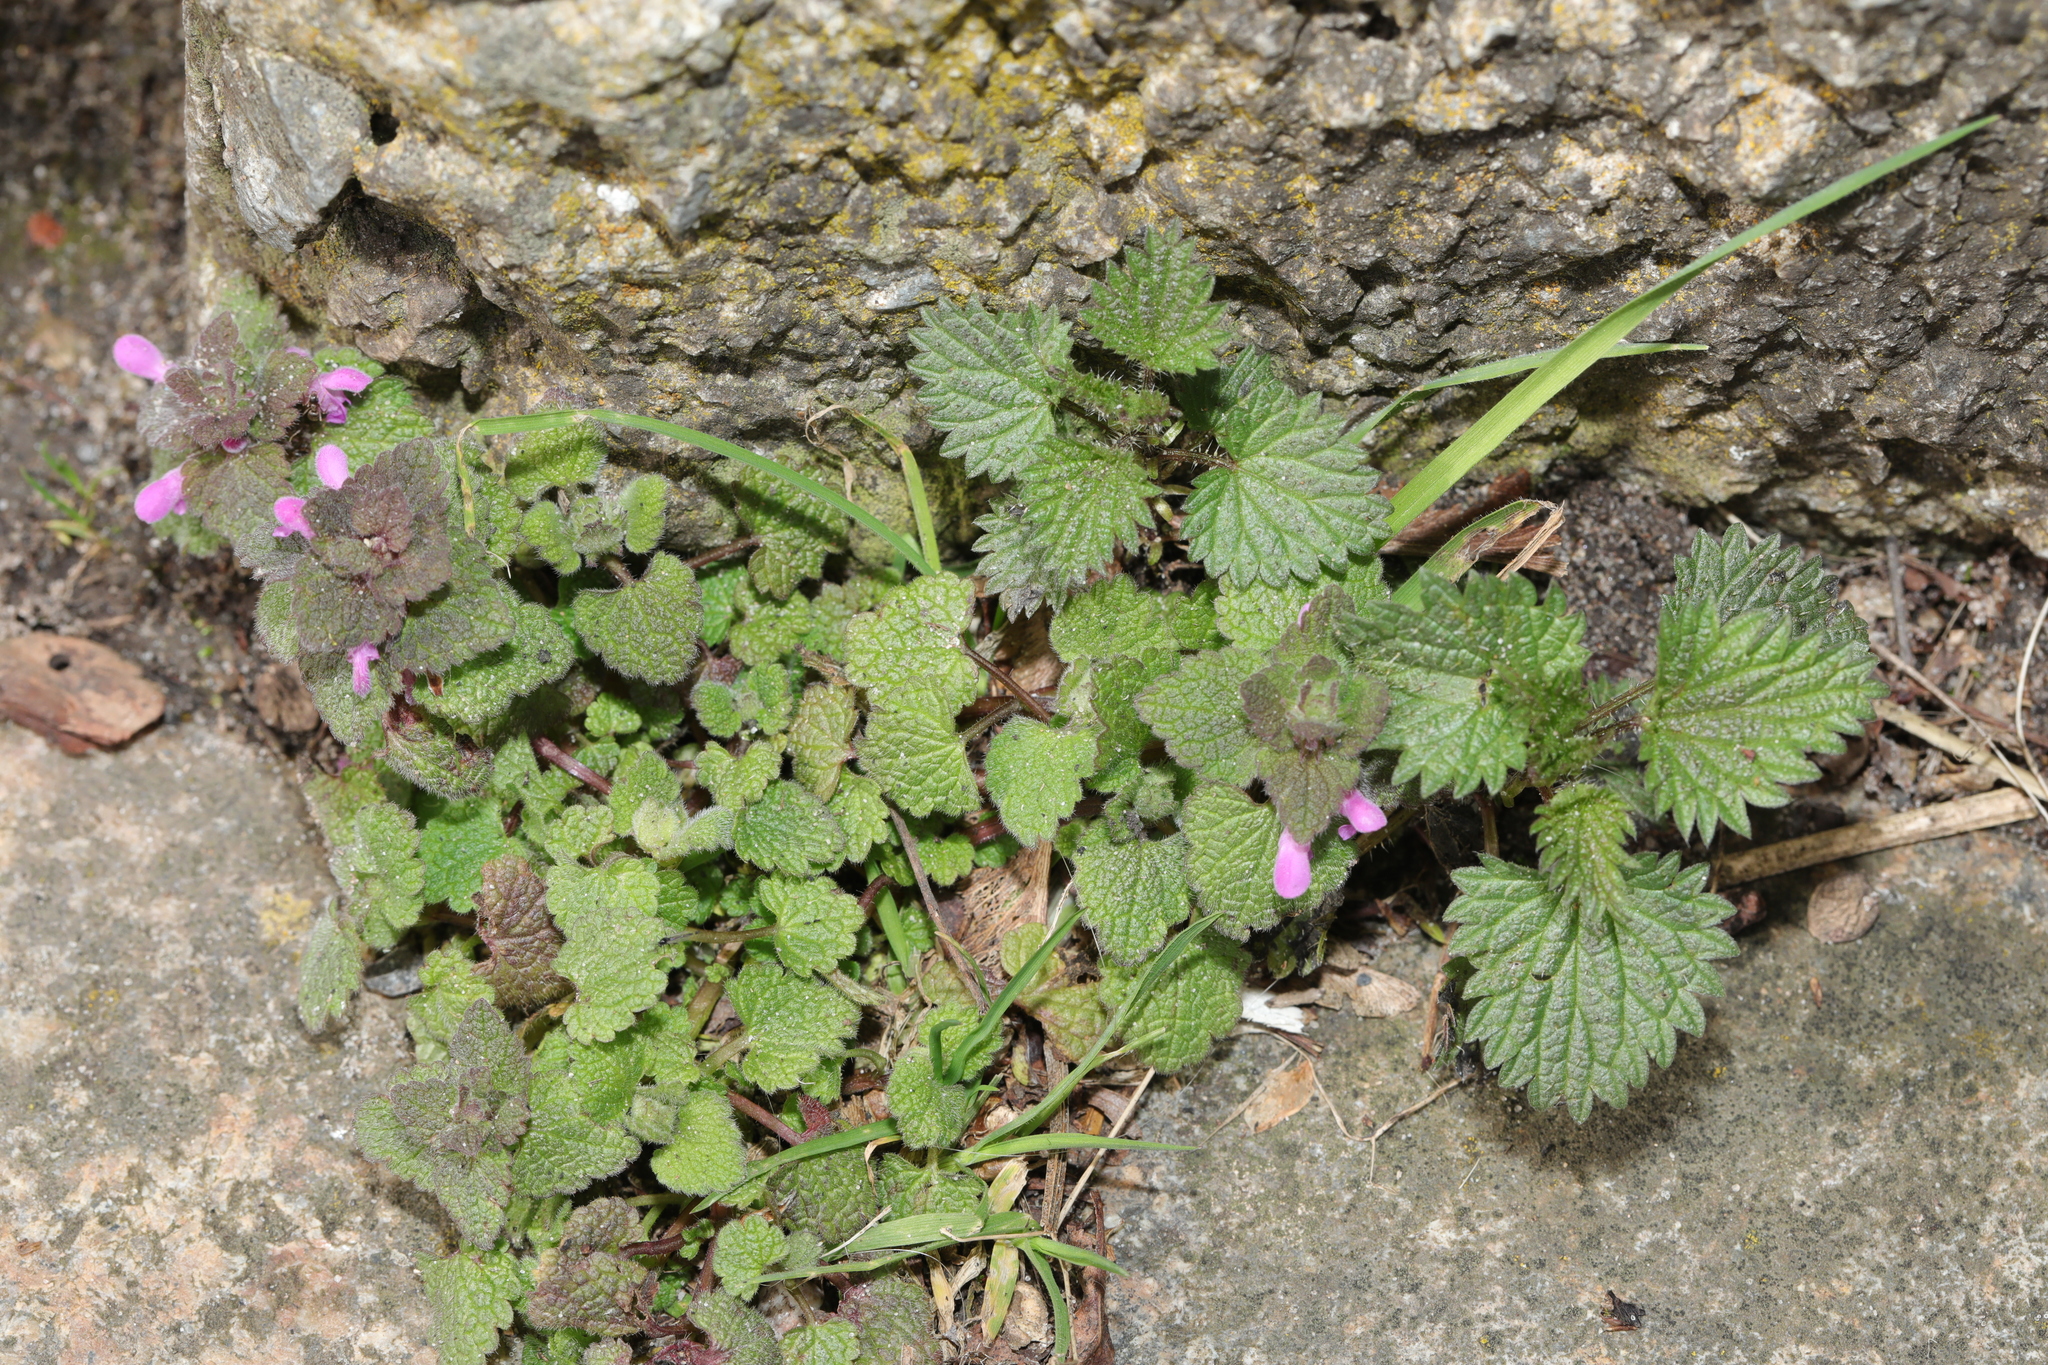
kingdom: Plantae
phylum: Tracheophyta
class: Magnoliopsida
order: Lamiales
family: Lamiaceae
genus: Lamium
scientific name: Lamium purpureum
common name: Red dead-nettle
